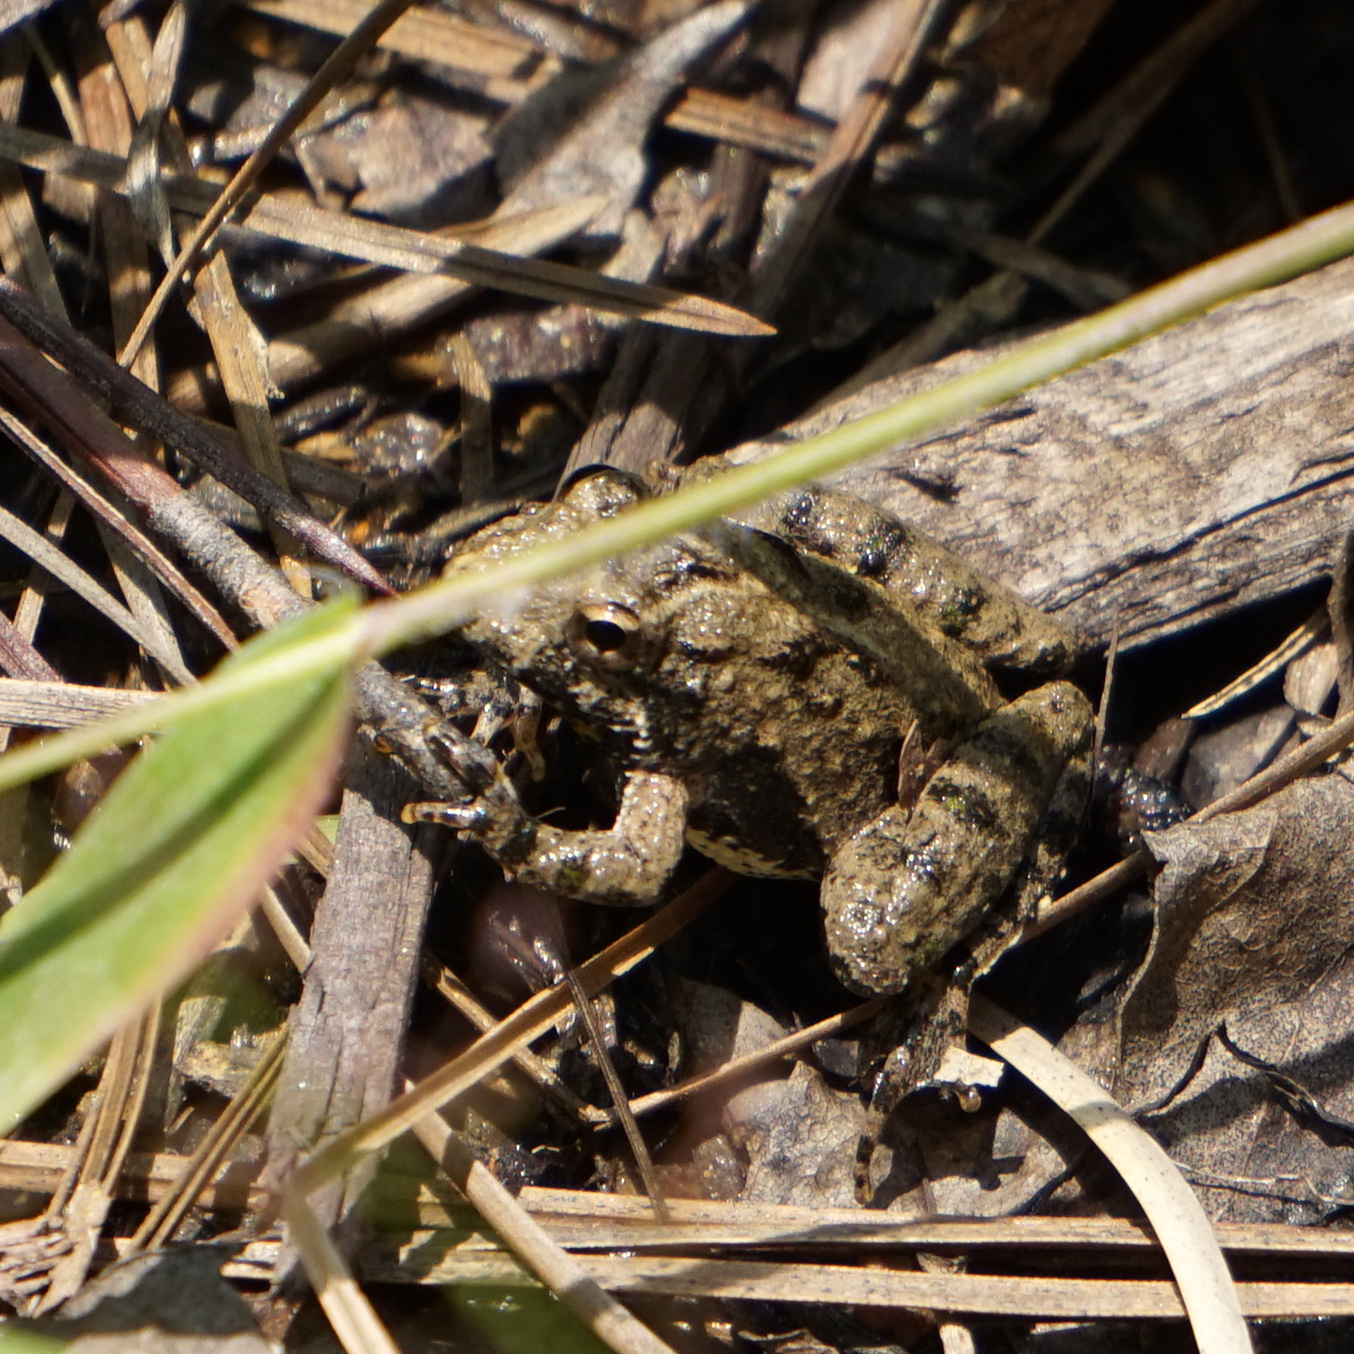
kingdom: Animalia
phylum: Chordata
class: Amphibia
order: Anura
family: Hylidae
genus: Acris
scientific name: Acris crepitans
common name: Northern cricket frog
